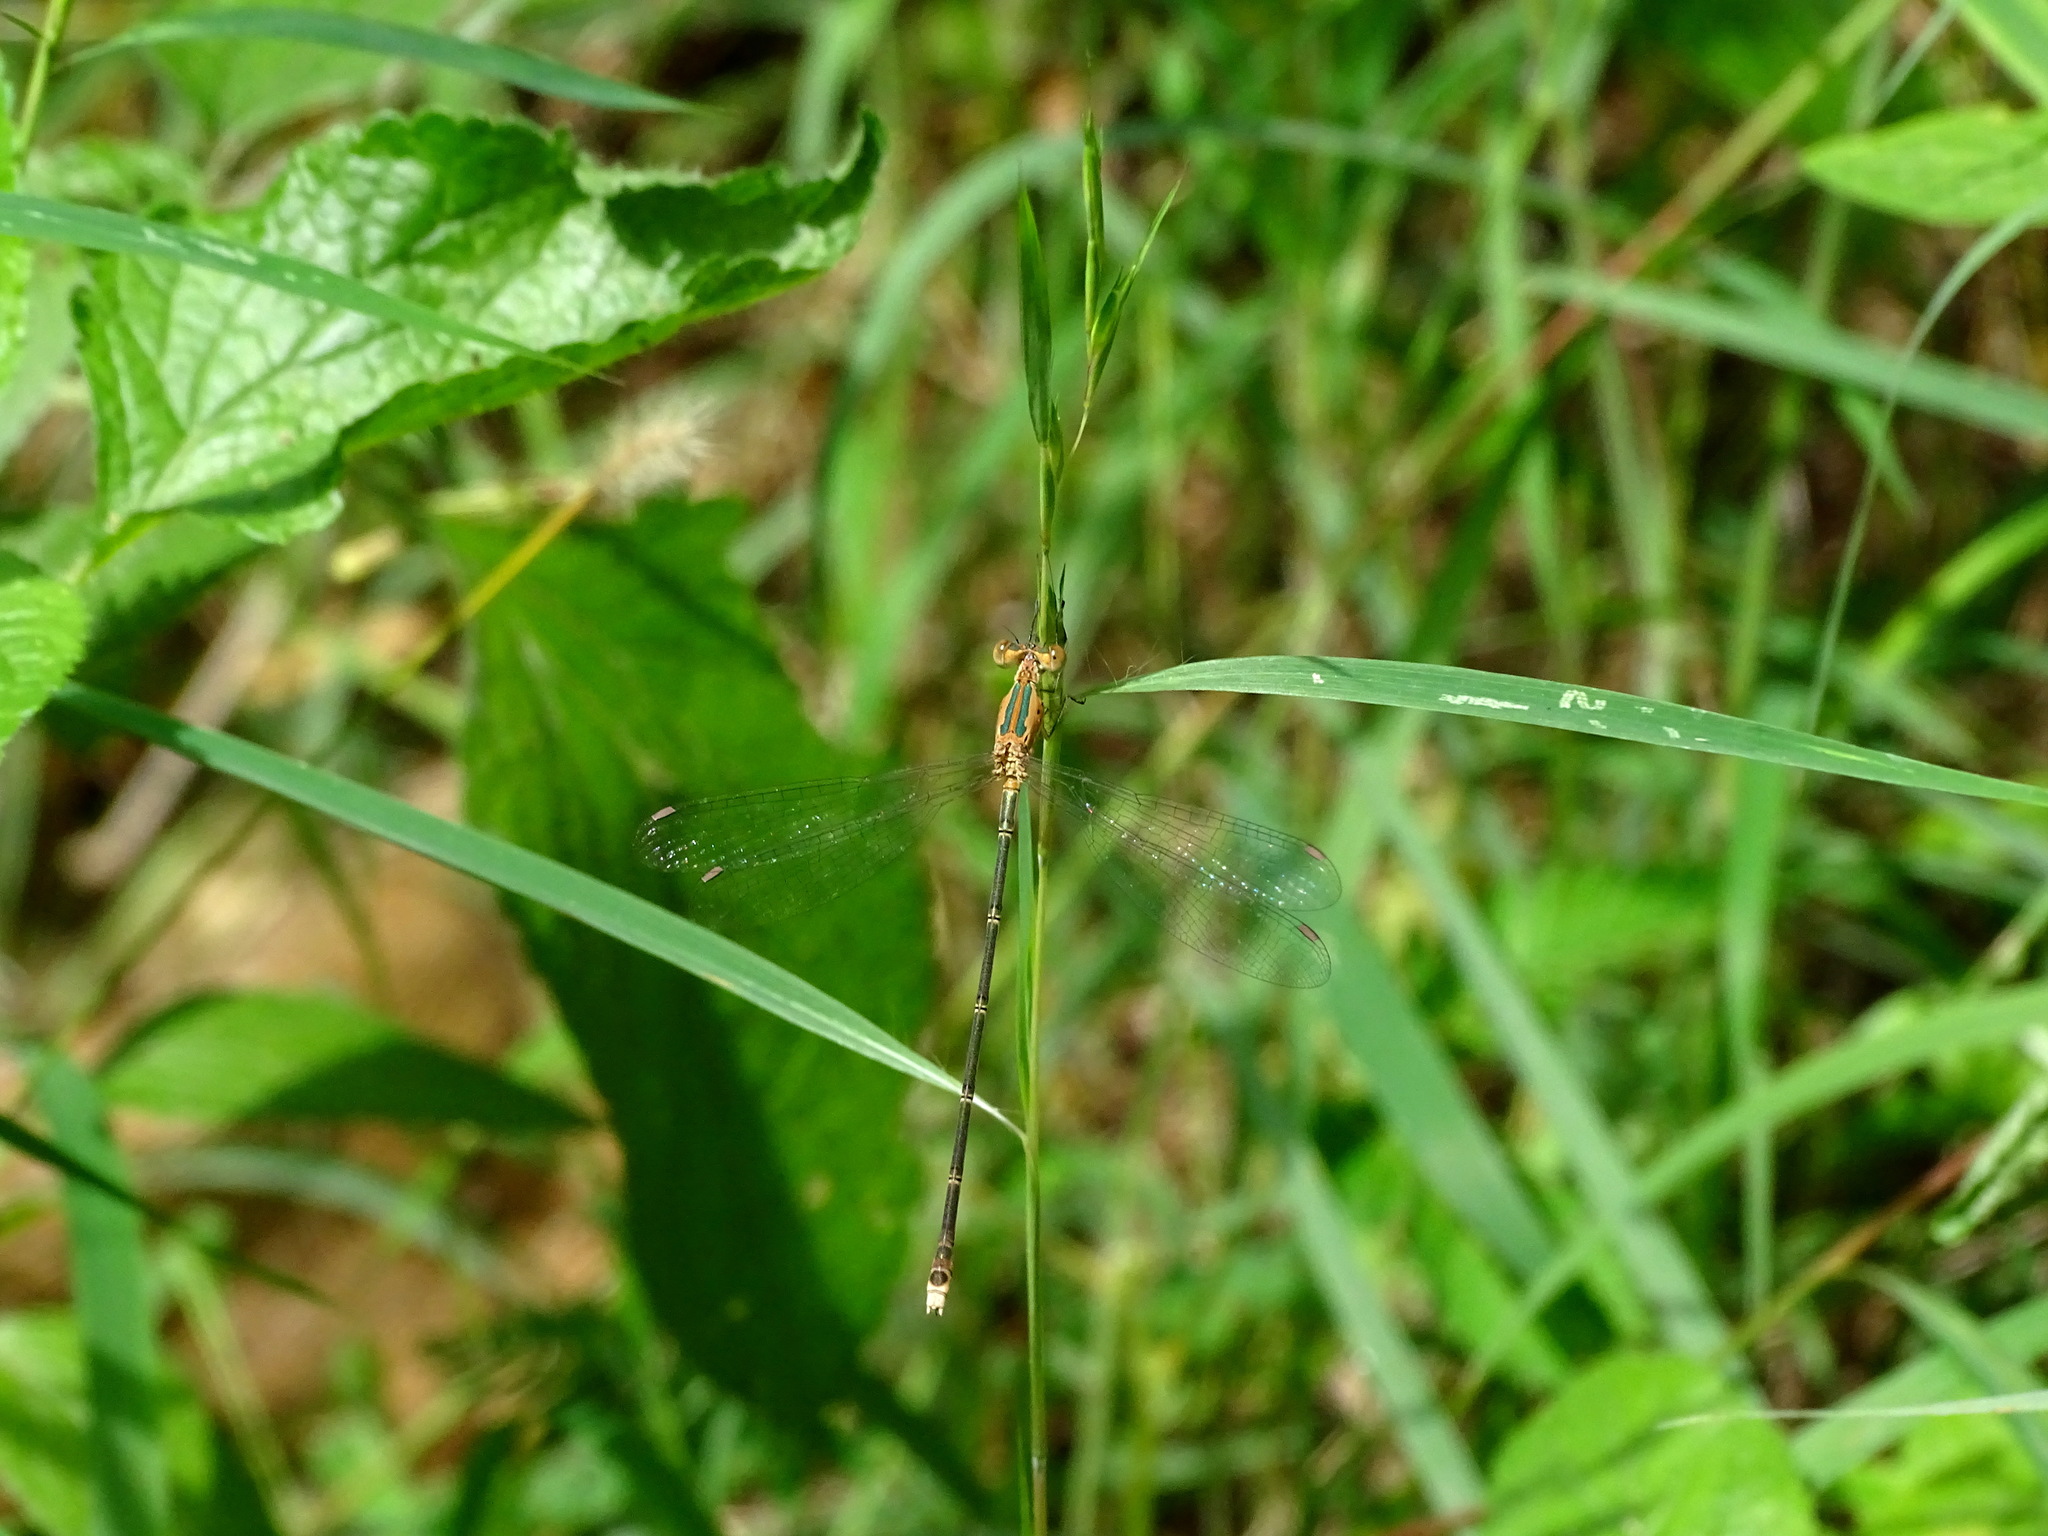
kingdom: Animalia
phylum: Arthropoda
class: Insecta
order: Odonata
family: Lestidae
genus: Lestes
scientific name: Lestes elatus
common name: Emerald spreadwing
